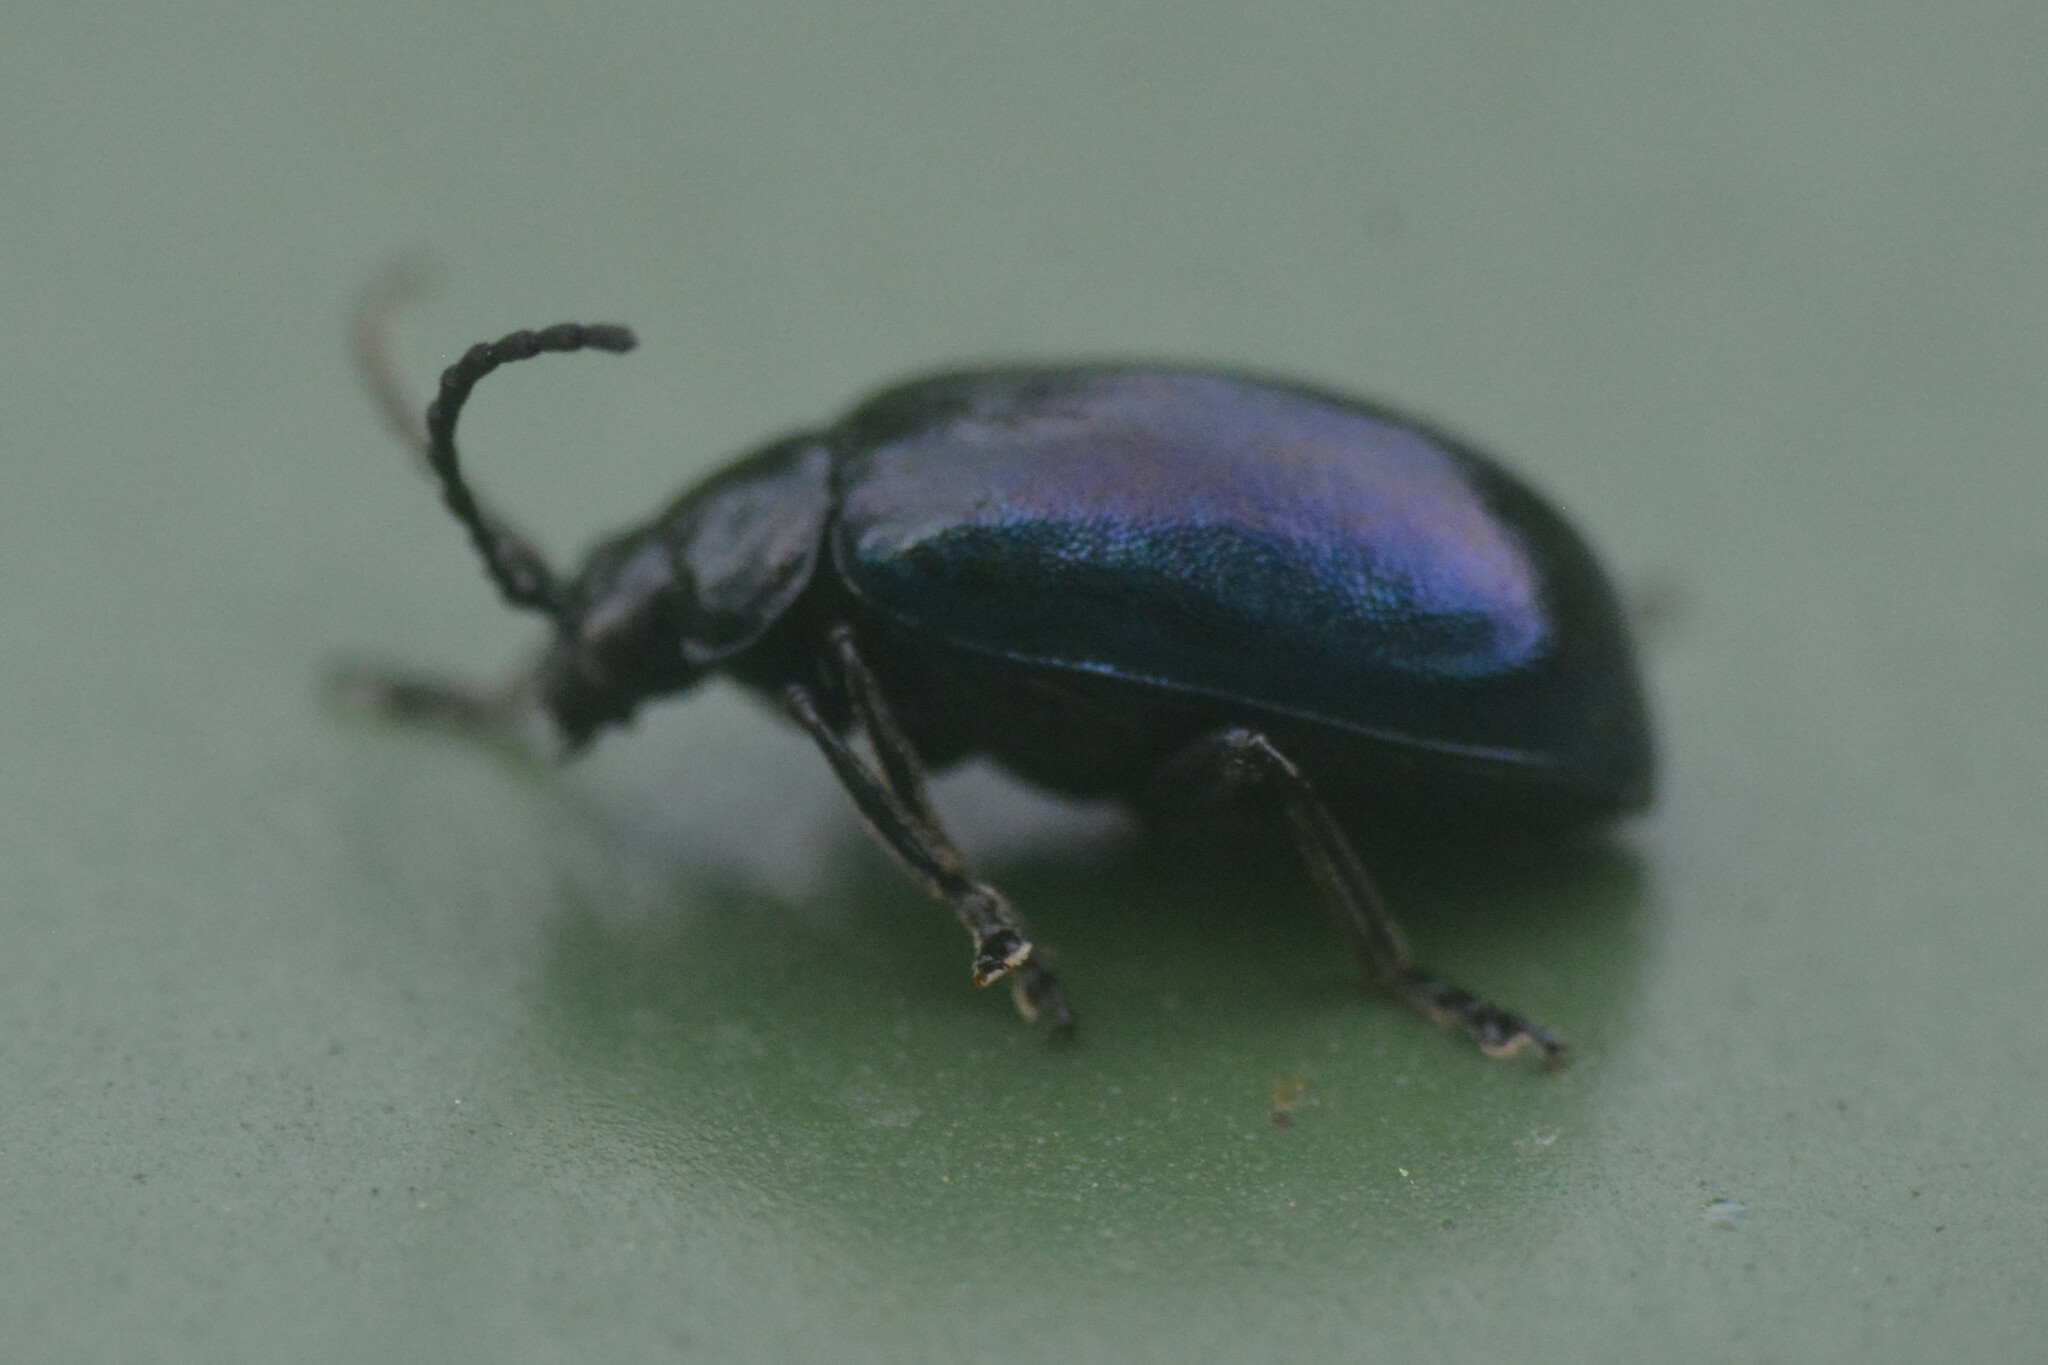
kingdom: Animalia
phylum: Arthropoda
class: Insecta
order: Coleoptera
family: Chrysomelidae
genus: Agelastica
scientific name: Agelastica alni
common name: Alder leaf beetle
